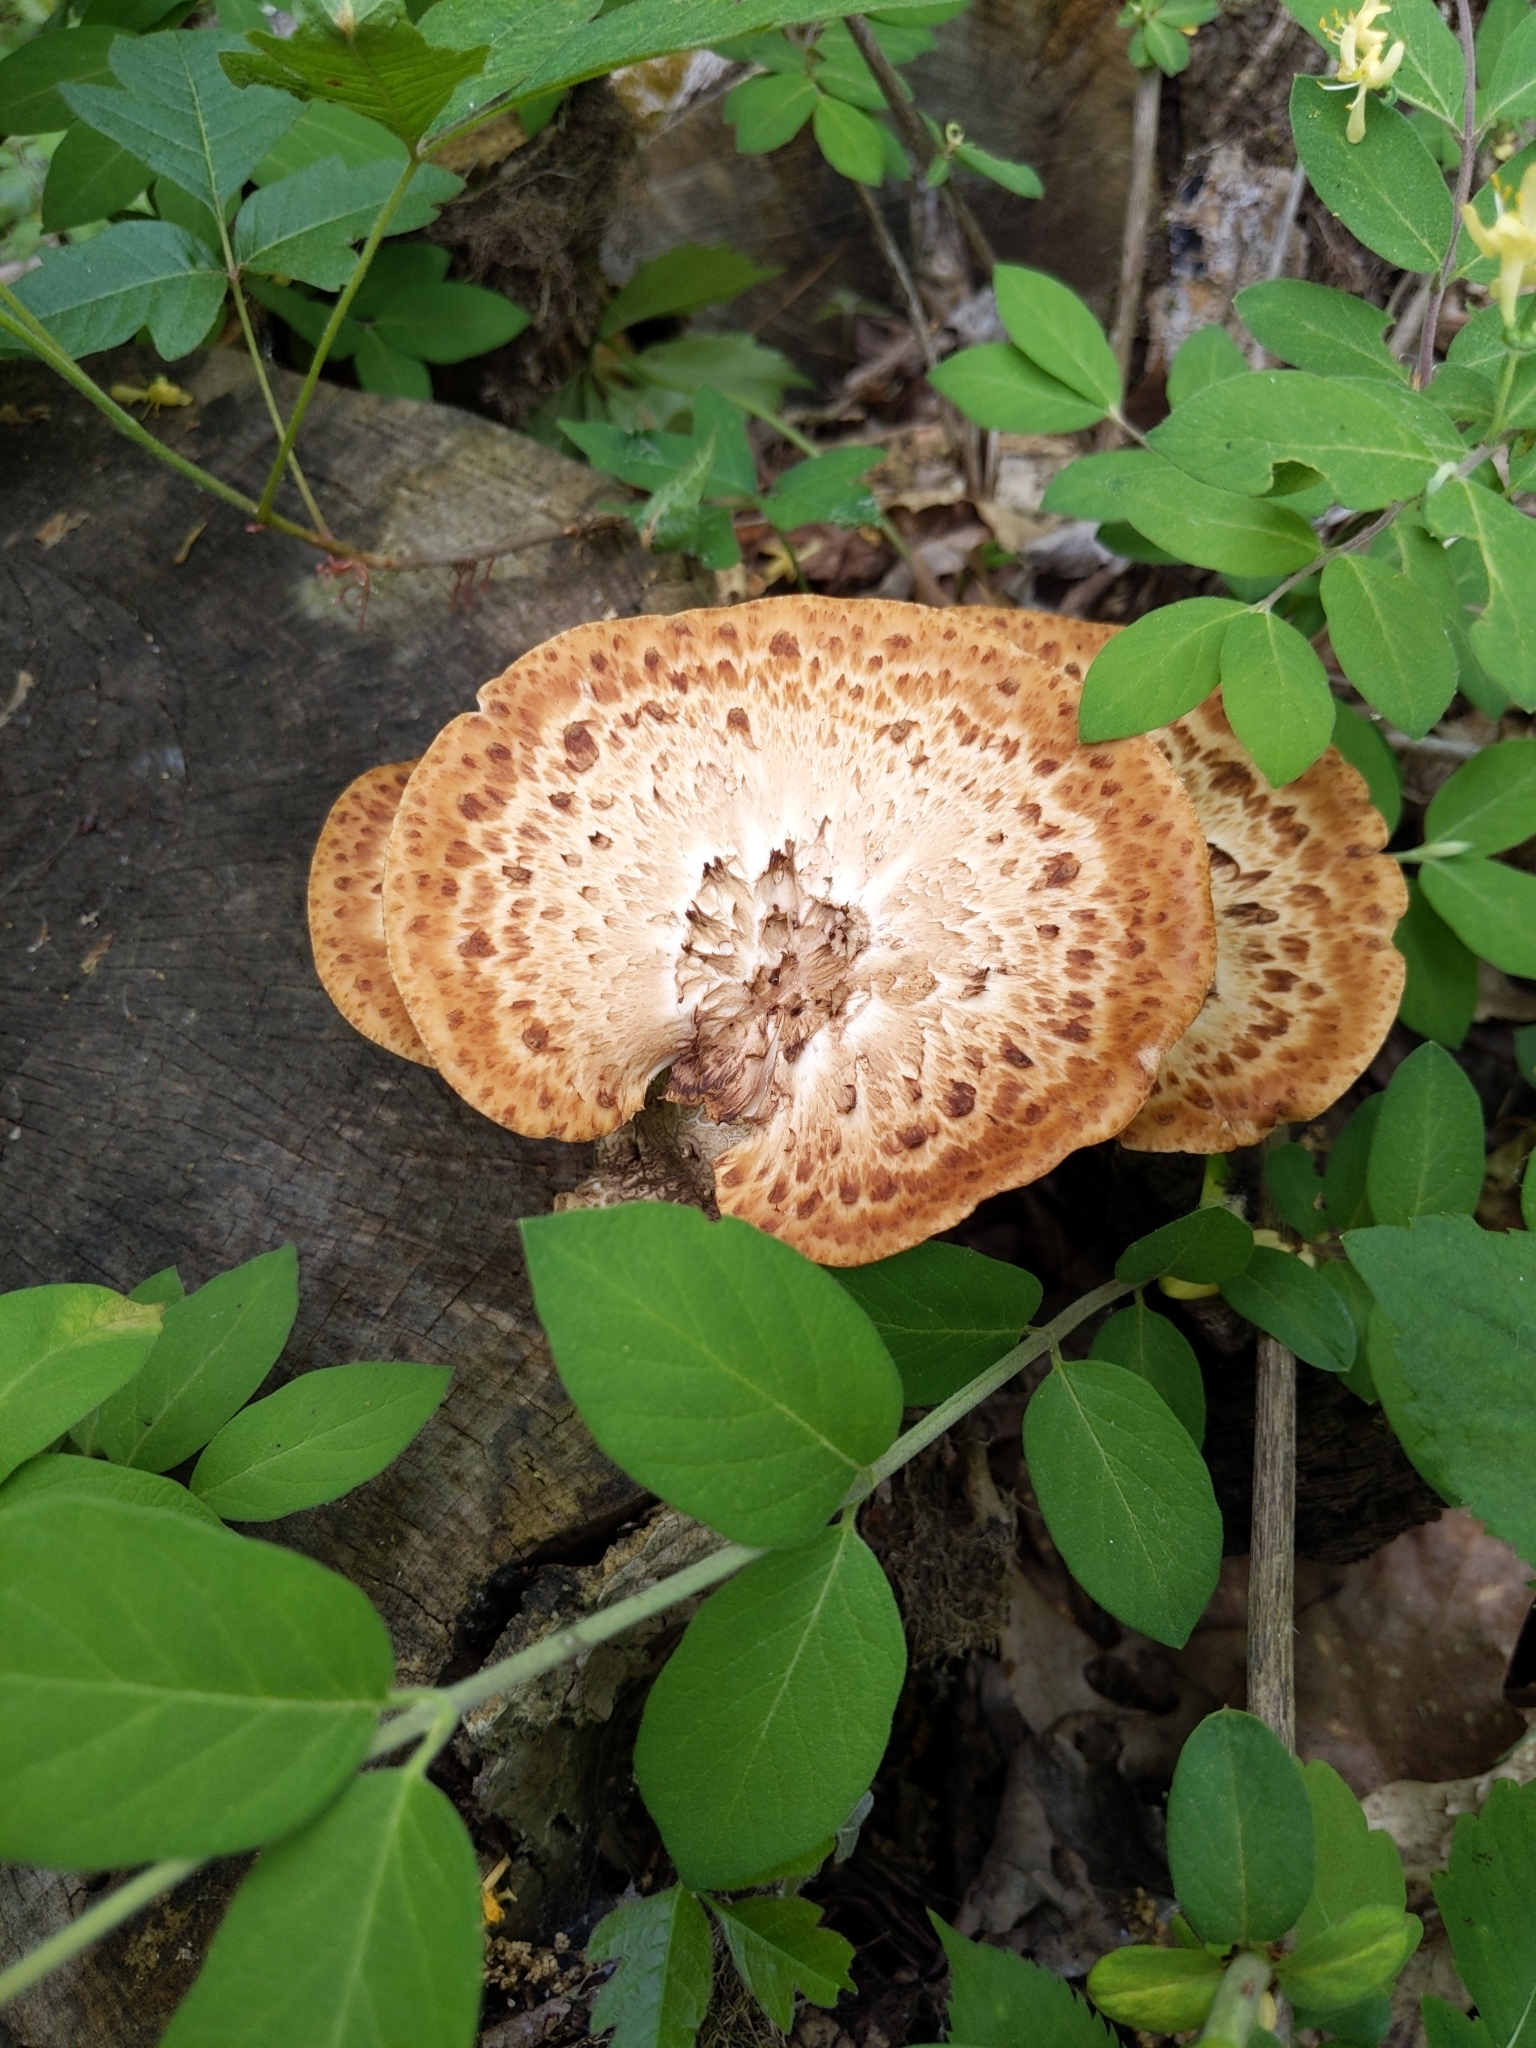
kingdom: Fungi
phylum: Basidiomycota
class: Agaricomycetes
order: Polyporales
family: Polyporaceae
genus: Cerioporus
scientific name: Cerioporus squamosus
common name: Dryad's saddle
